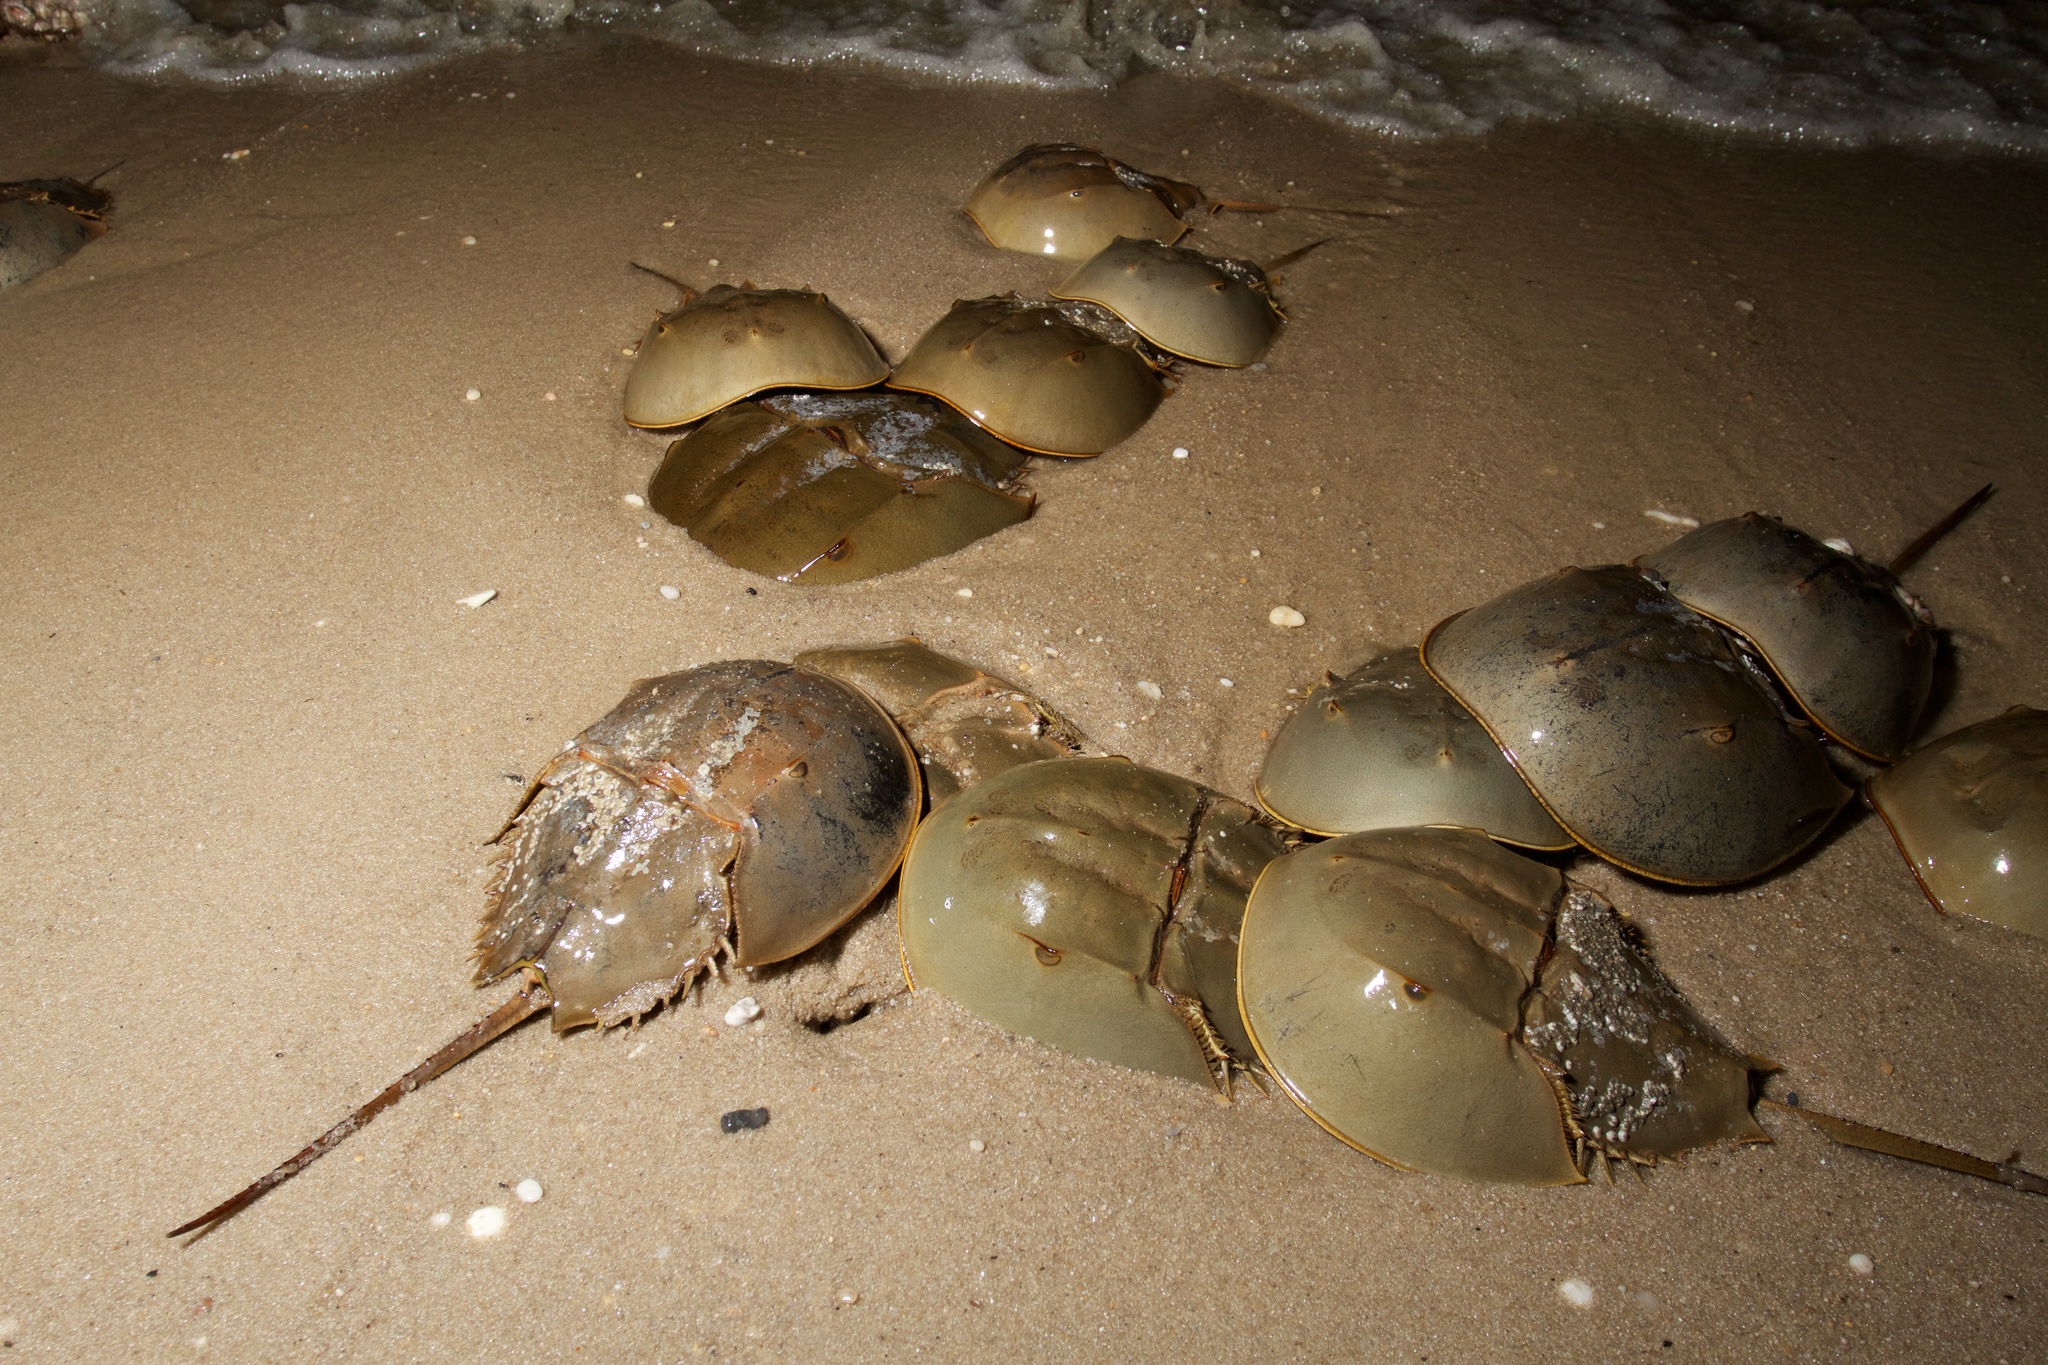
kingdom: Animalia
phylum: Arthropoda
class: Merostomata
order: Xiphosurida
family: Limulidae
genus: Limulus
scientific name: Limulus polyphemus
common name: Horseshoe crab
